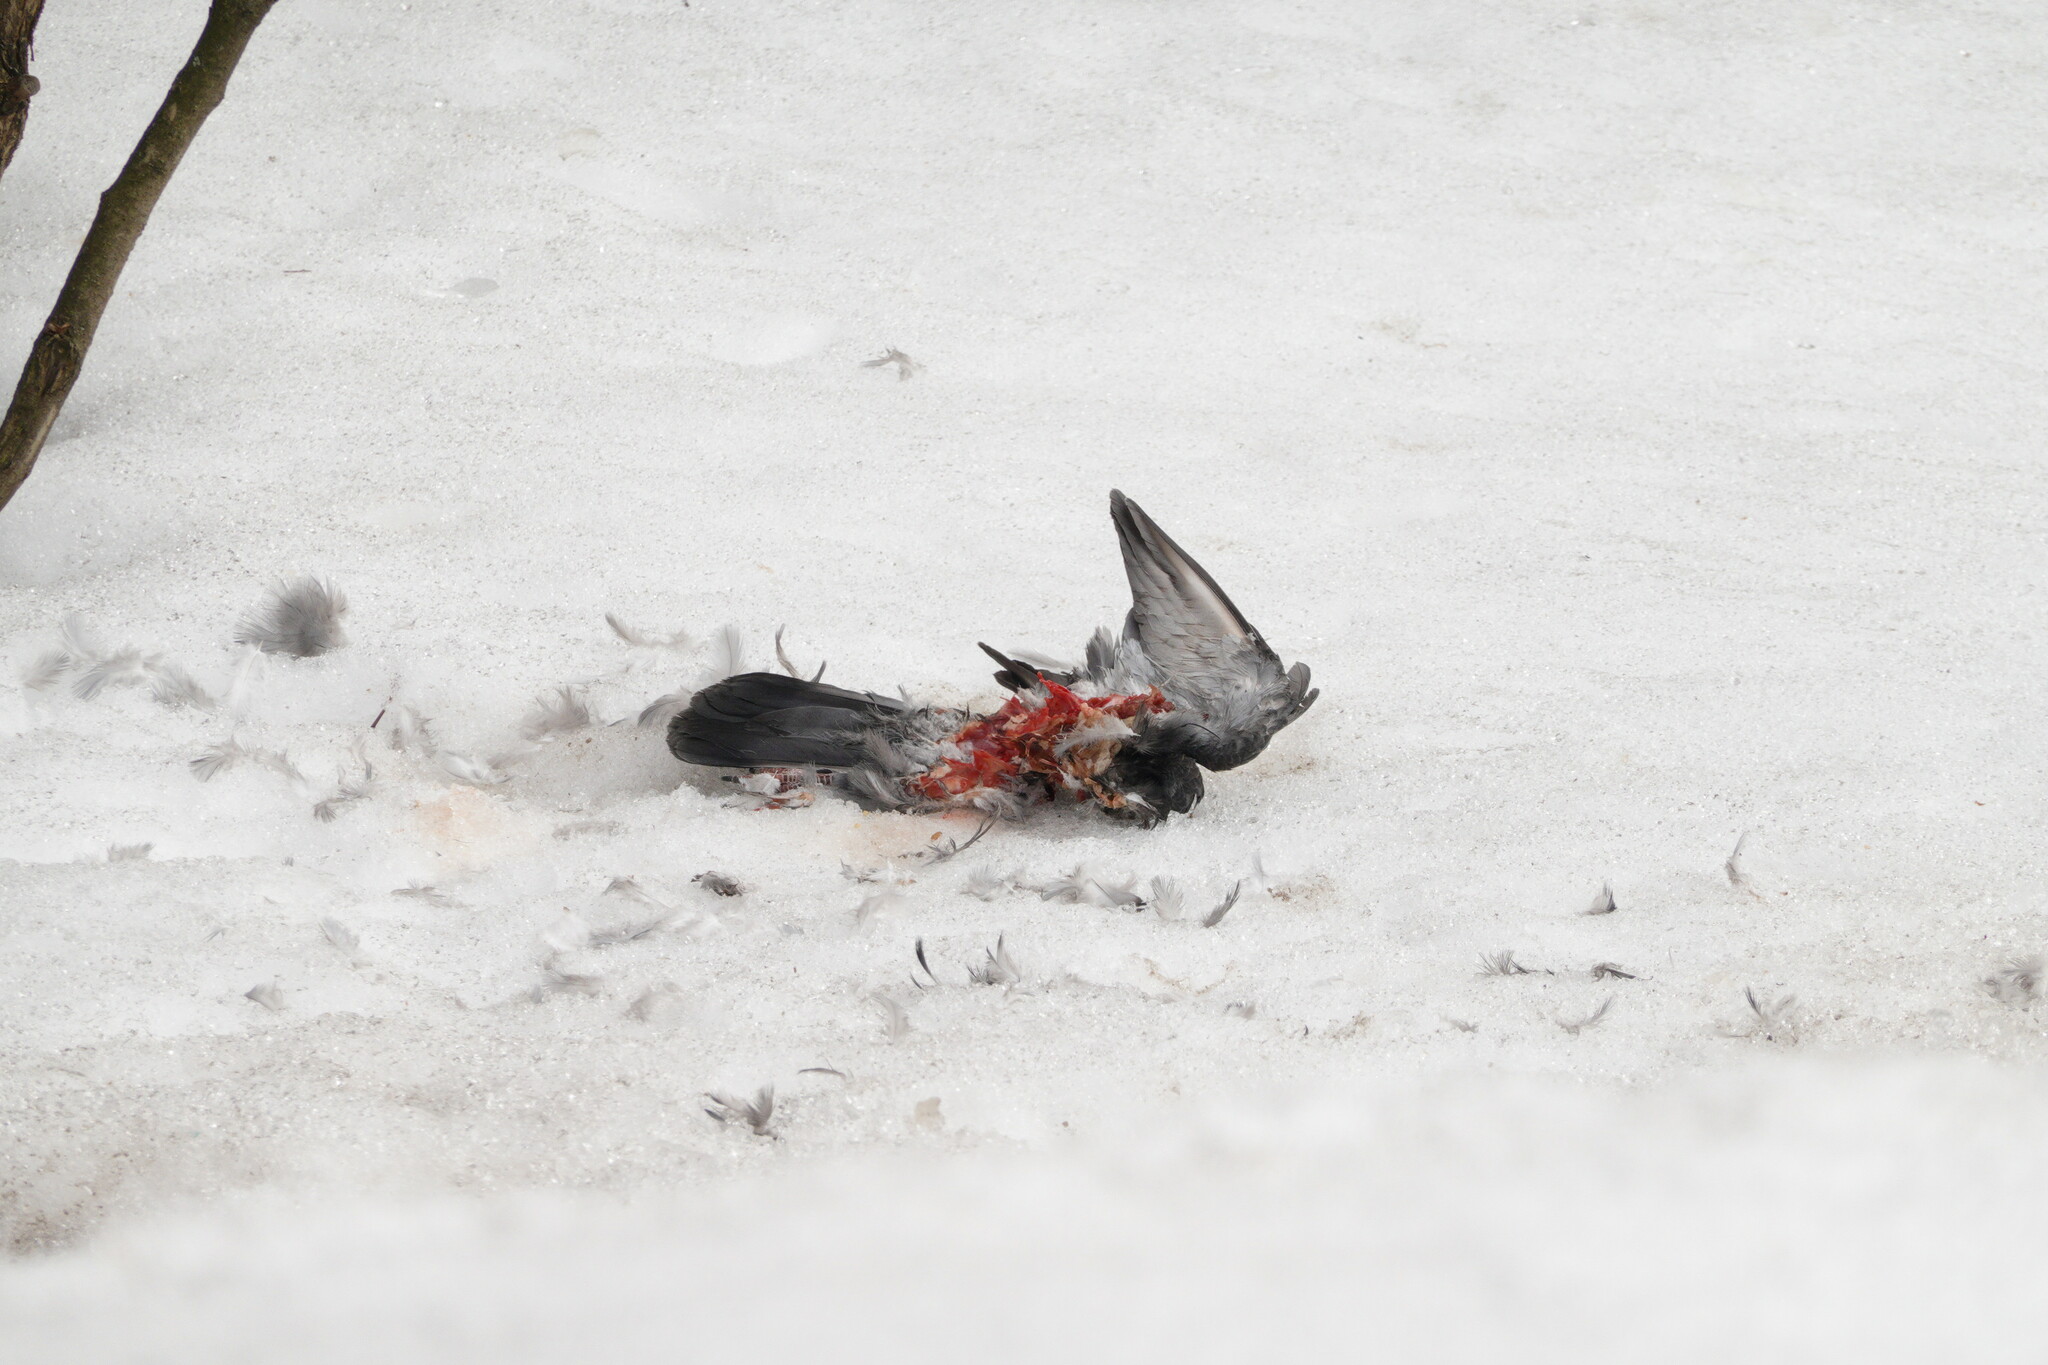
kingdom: Animalia
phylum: Chordata
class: Aves
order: Columbiformes
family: Columbidae
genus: Columba
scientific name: Columba livia
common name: Rock pigeon
